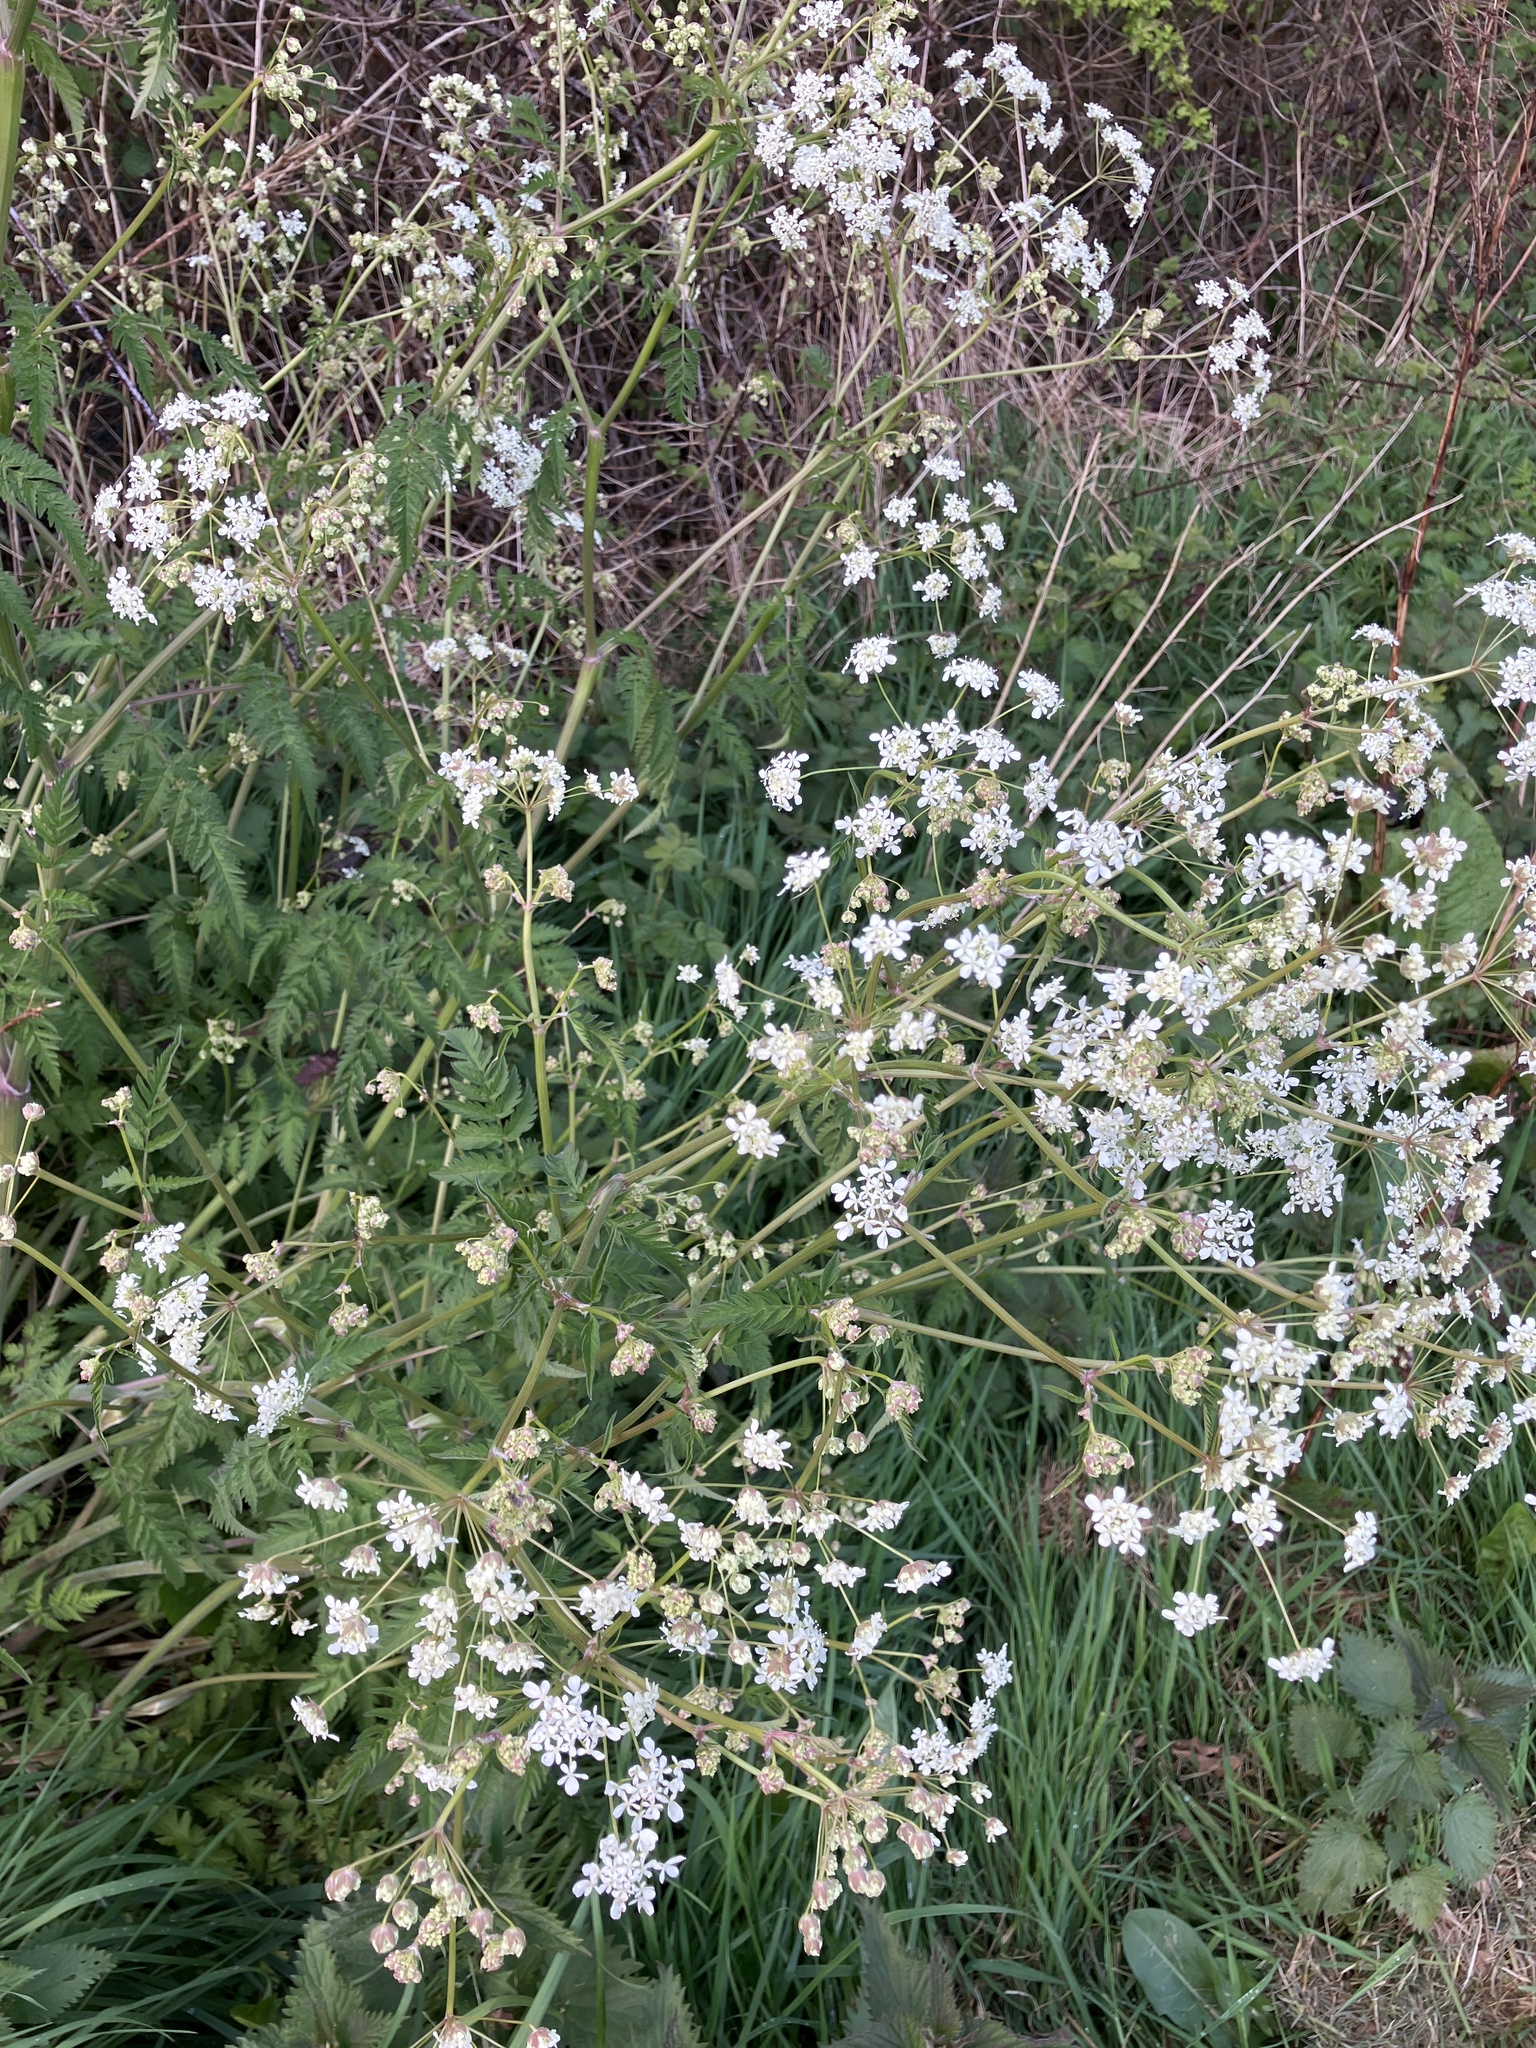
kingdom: Plantae
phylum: Tracheophyta
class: Magnoliopsida
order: Apiales
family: Apiaceae
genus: Anthriscus
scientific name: Anthriscus sylvestris
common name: Cow parsley
